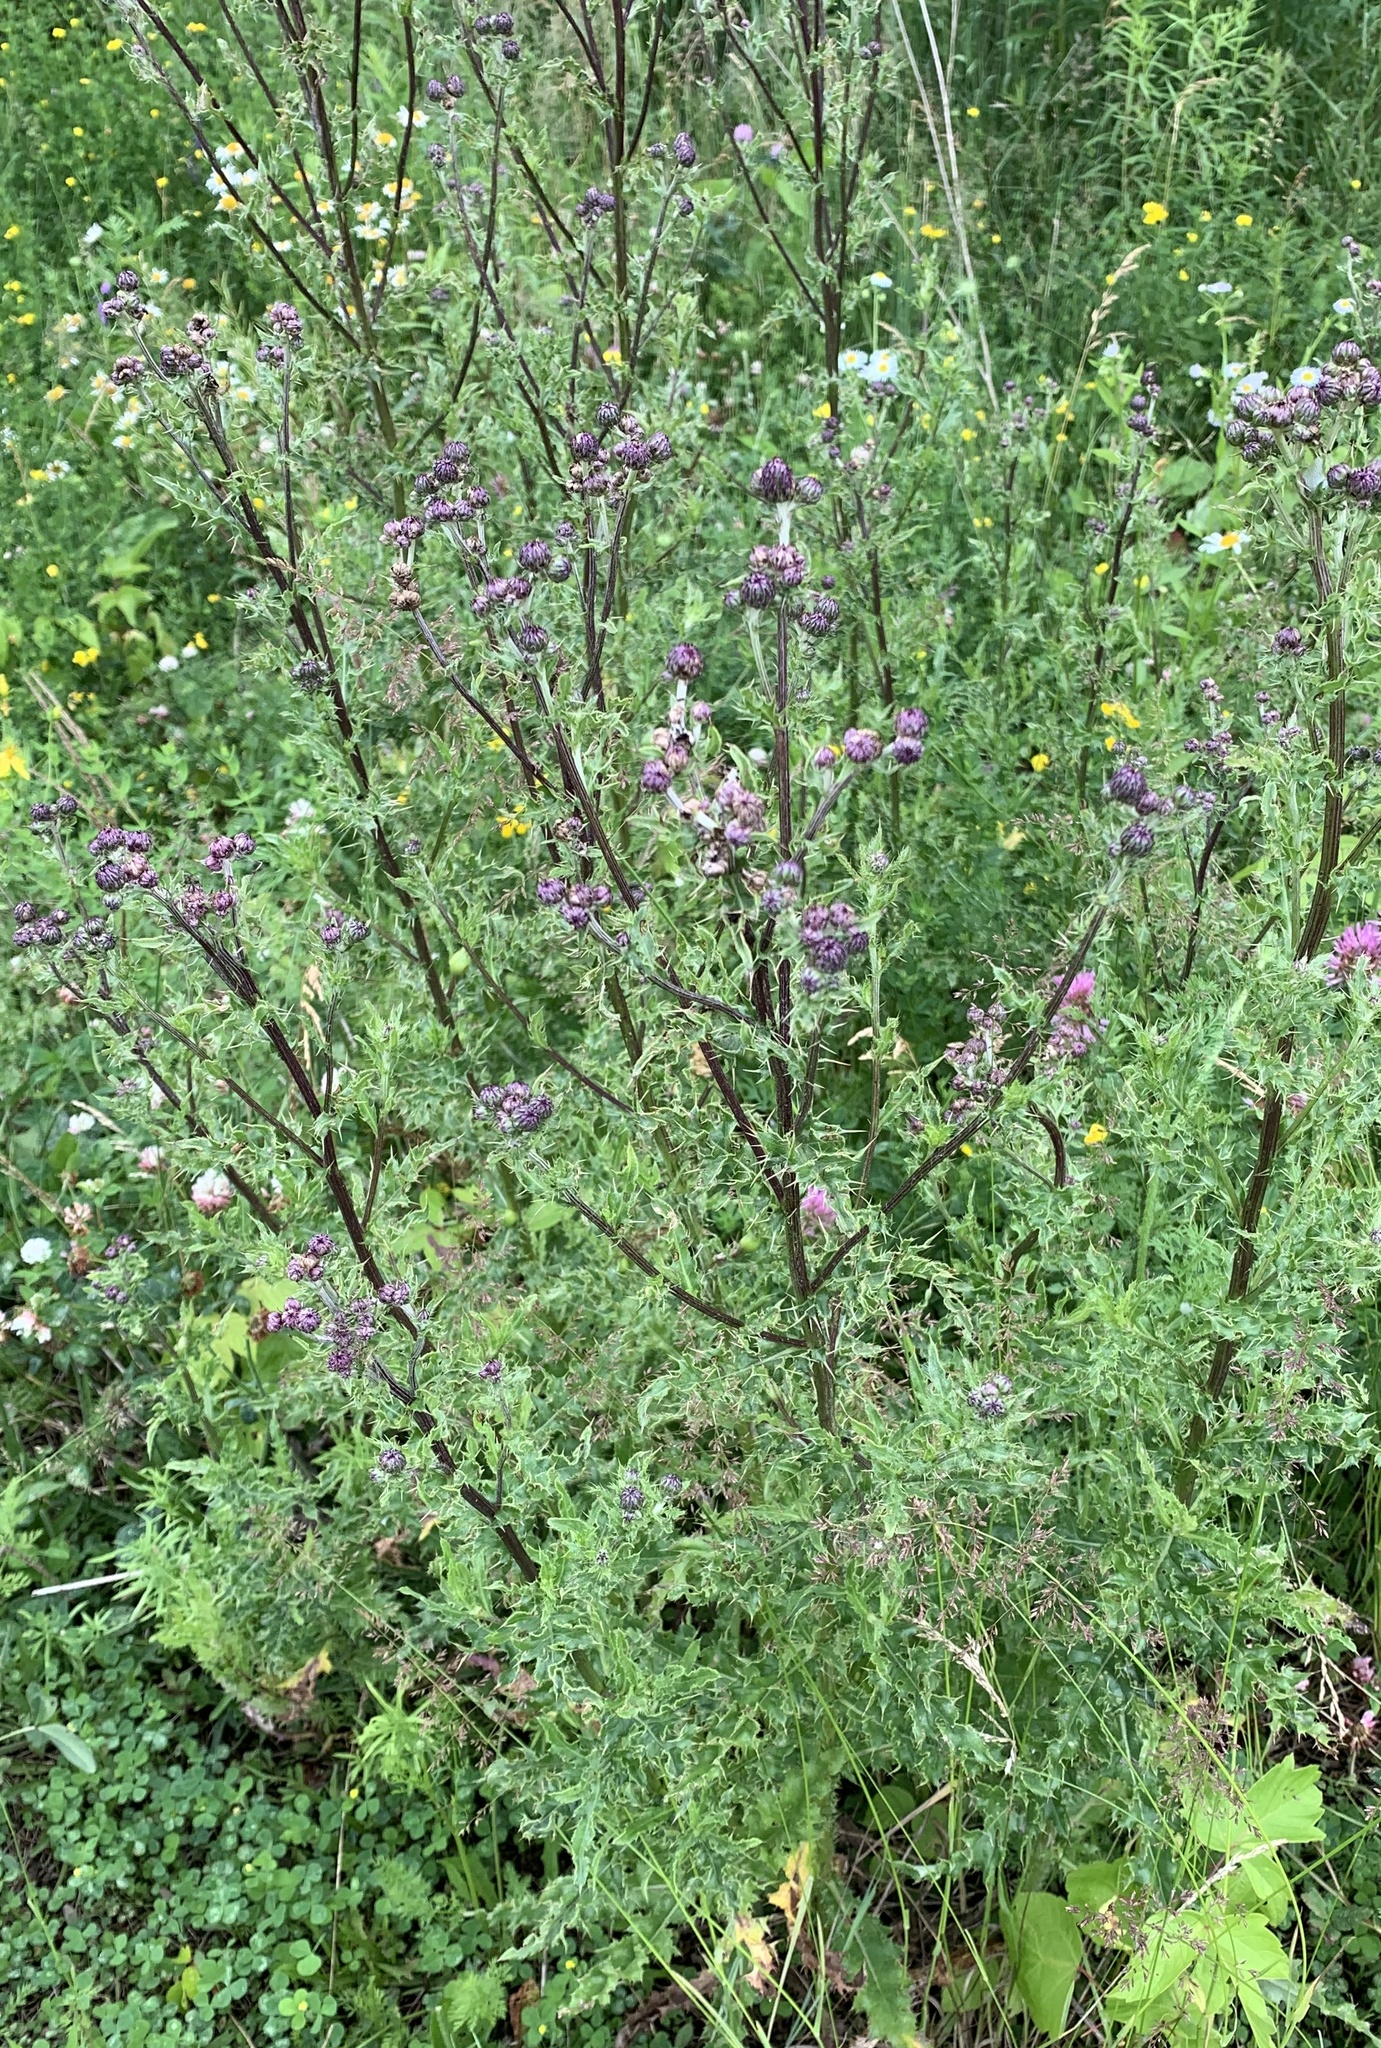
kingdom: Plantae
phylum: Tracheophyta
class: Magnoliopsida
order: Asterales
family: Asteraceae
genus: Cirsium
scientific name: Cirsium arvense
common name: Creeping thistle
